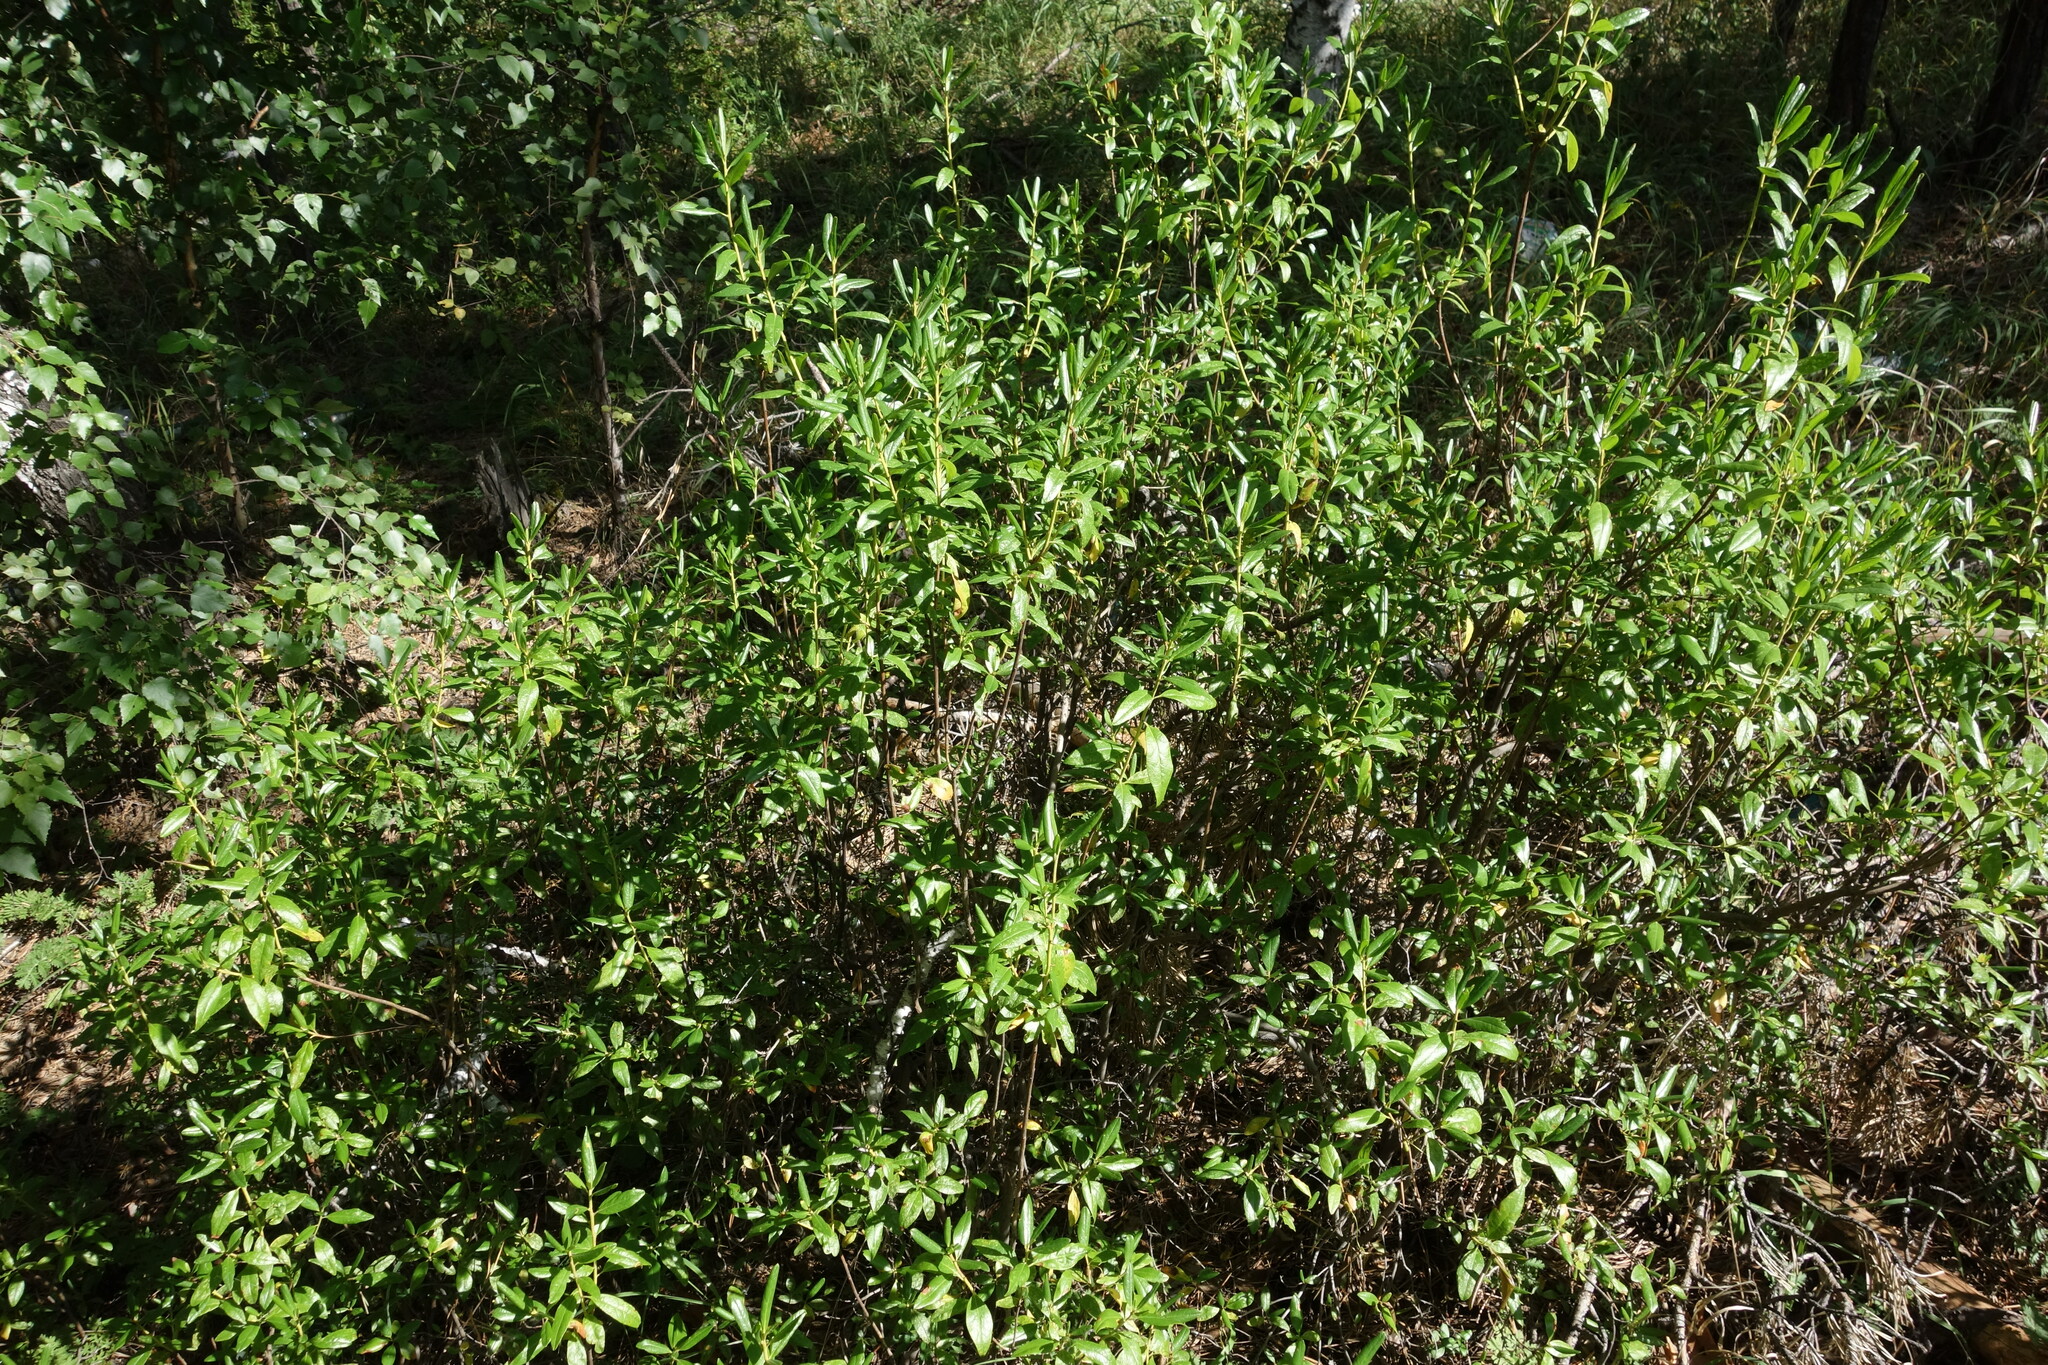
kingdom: Plantae
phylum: Tracheophyta
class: Magnoliopsida
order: Ericales
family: Ericaceae
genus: Rhododendron
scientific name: Rhododendron dauricum
